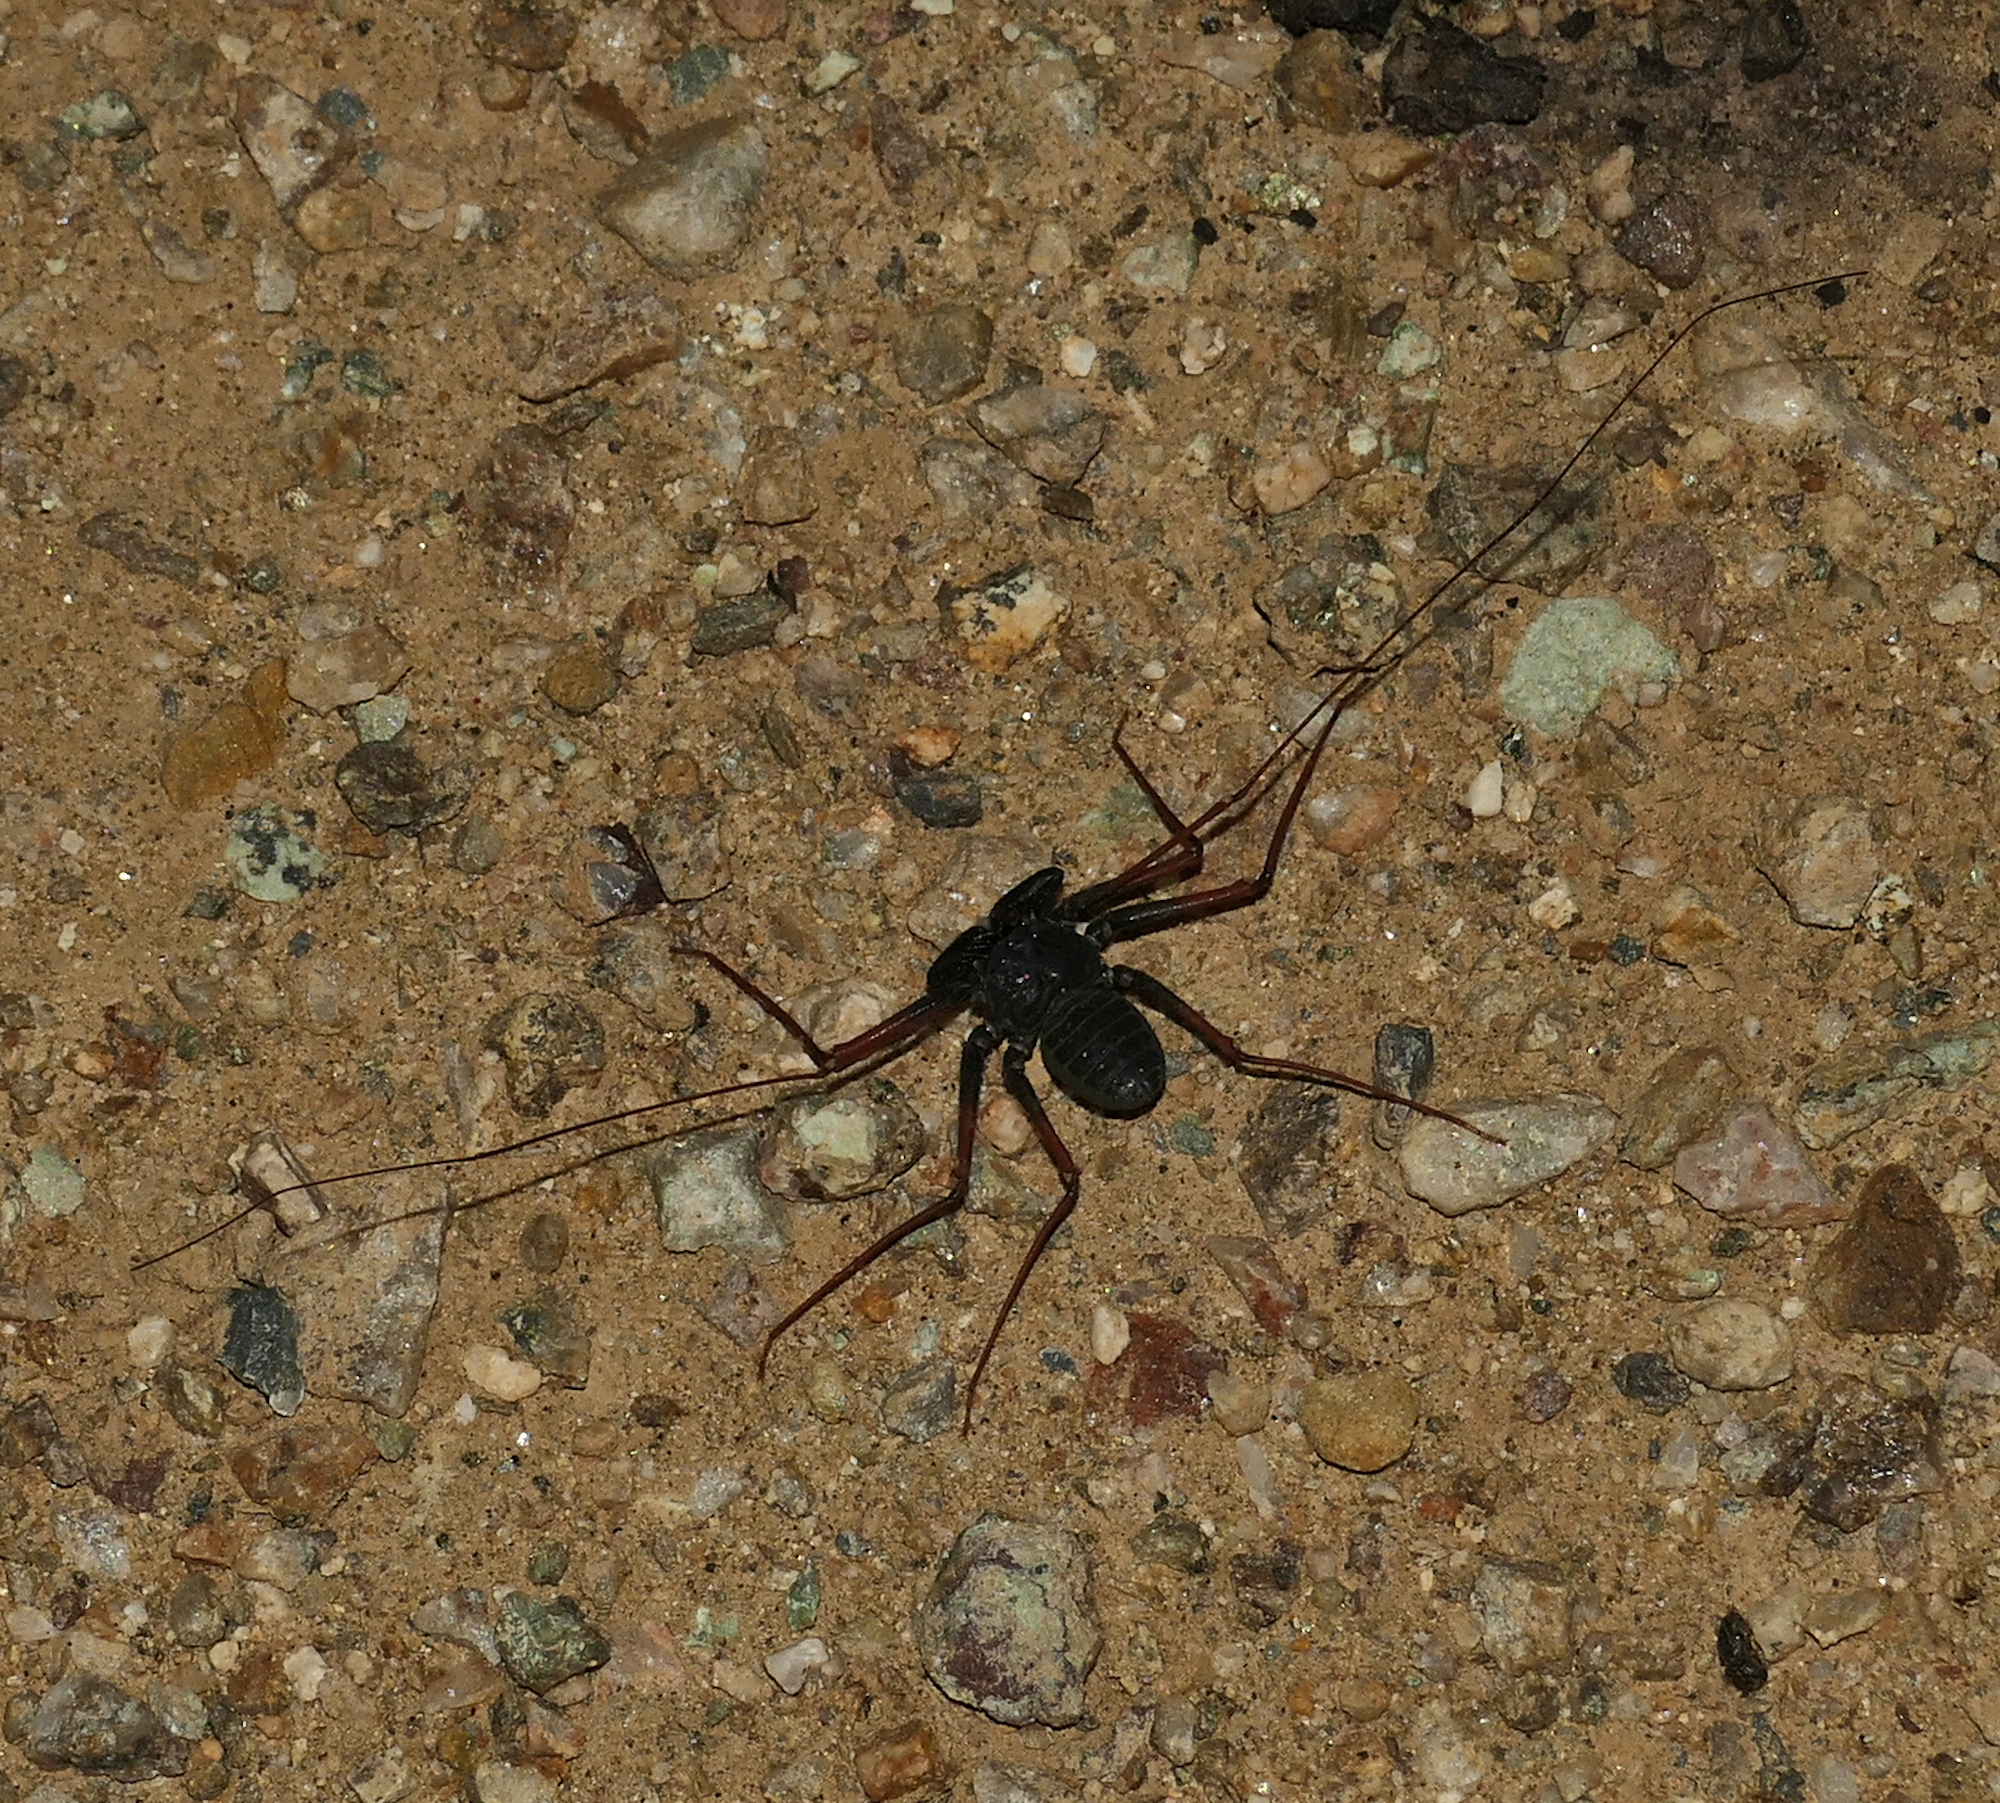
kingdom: Animalia
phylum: Arthropoda
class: Arachnida
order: Amblypygi
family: Phrynidae
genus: Paraphrynus
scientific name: Paraphrynus carolynae
